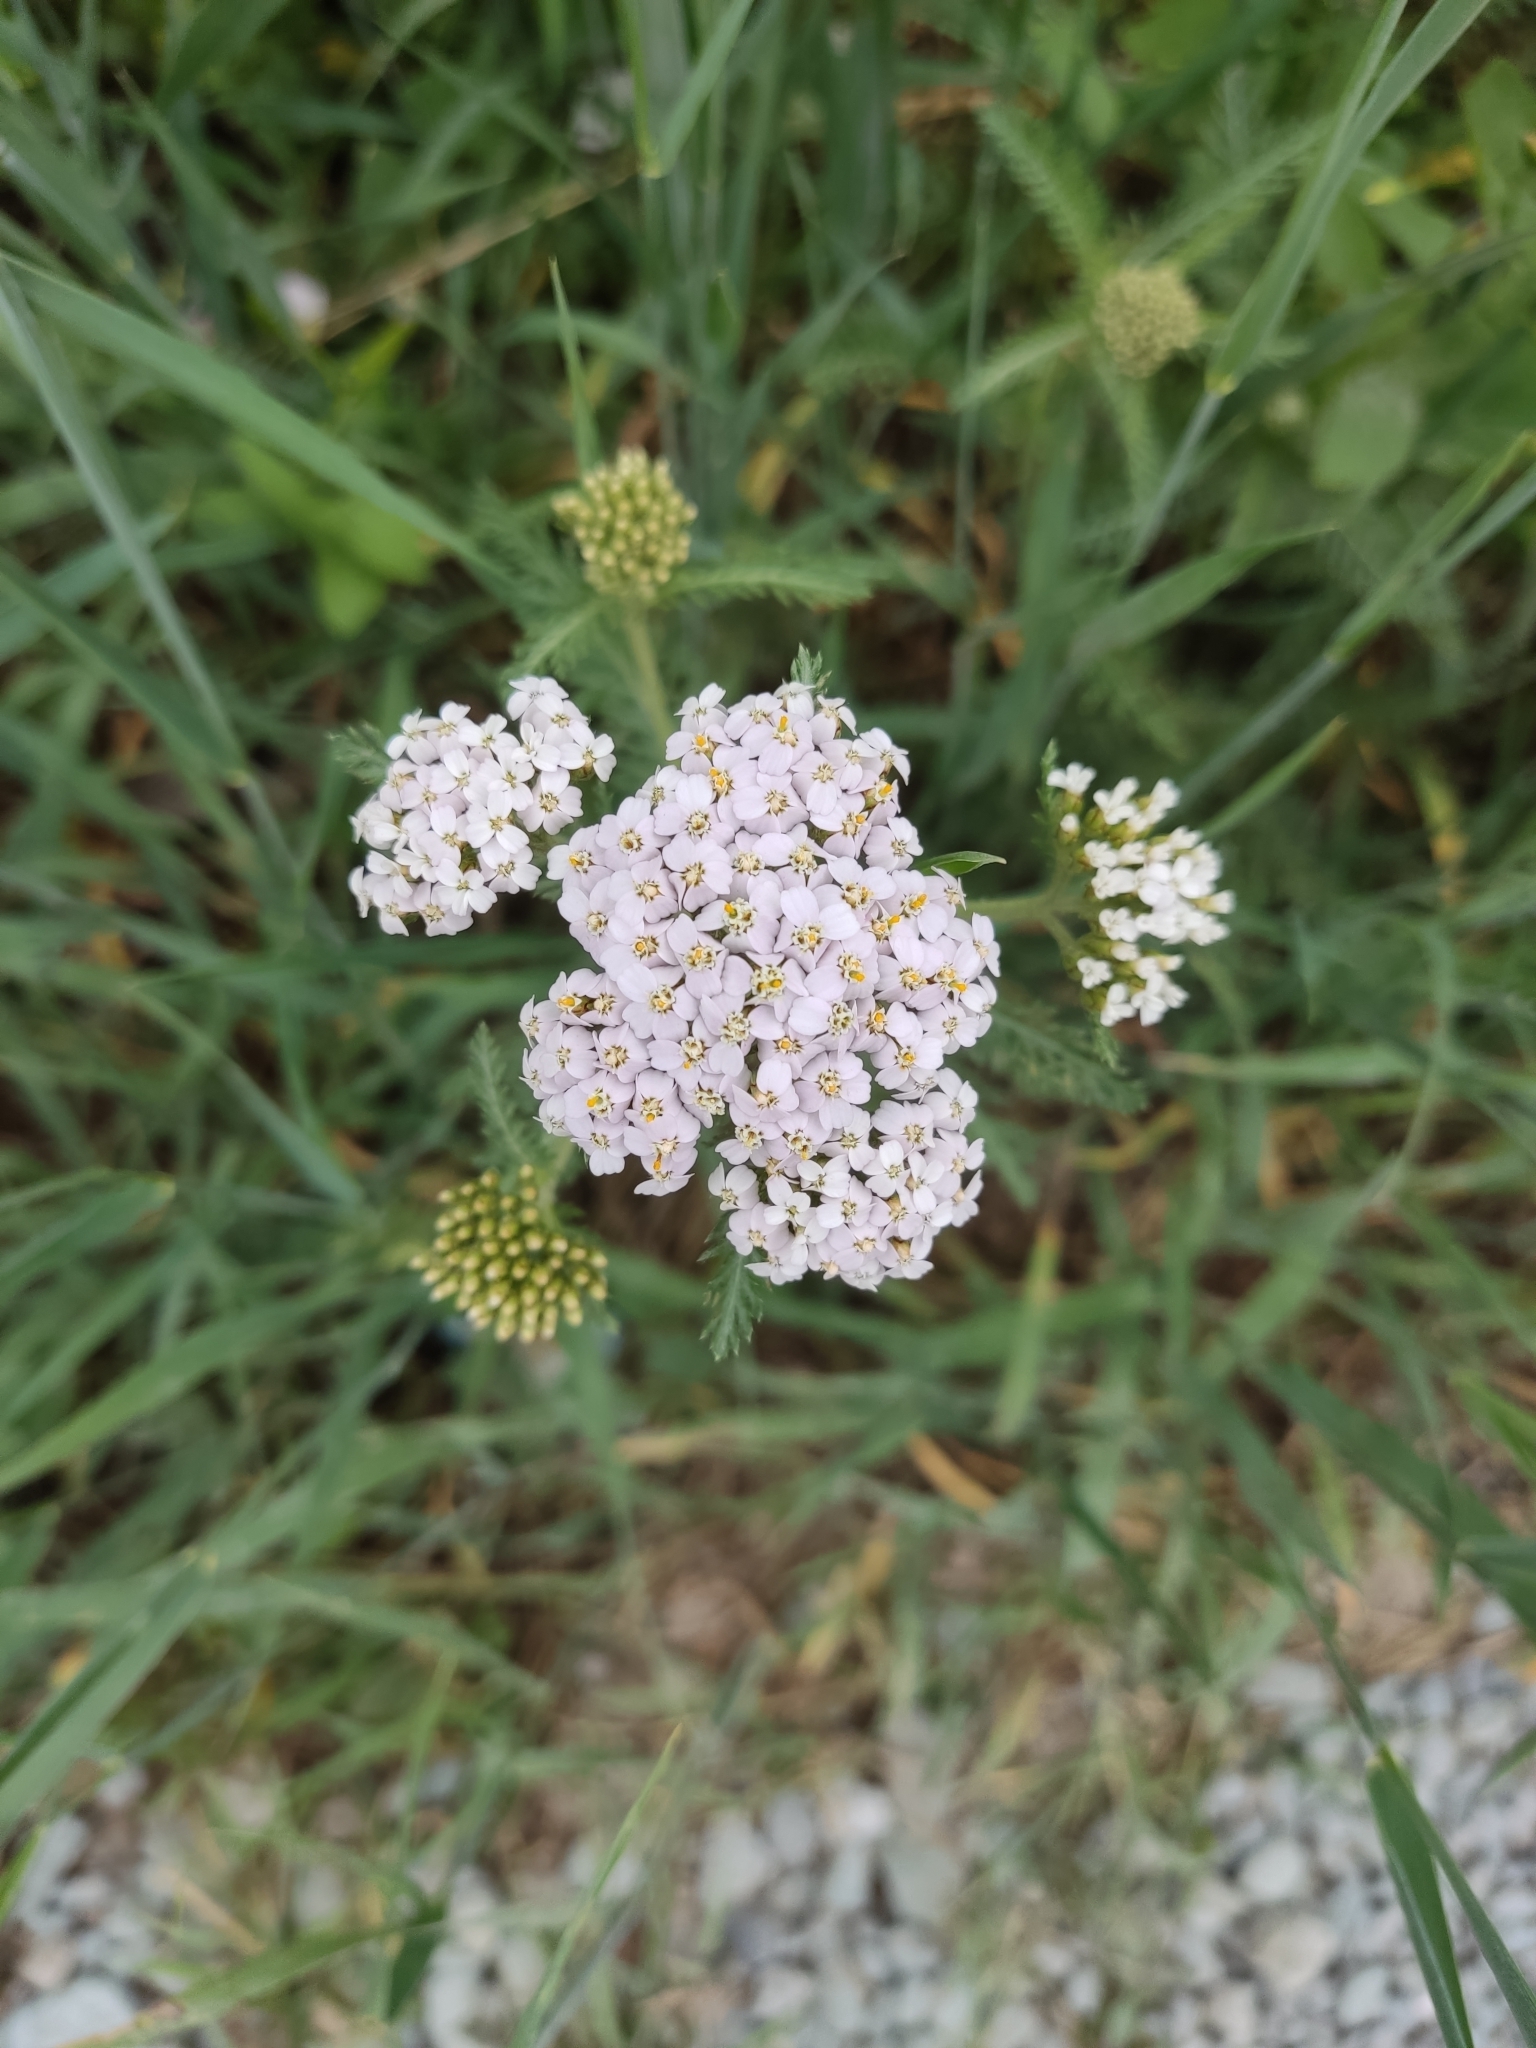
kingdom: Plantae
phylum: Tracheophyta
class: Magnoliopsida
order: Asterales
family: Asteraceae
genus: Achillea
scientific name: Achillea millefolium
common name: Yarrow
